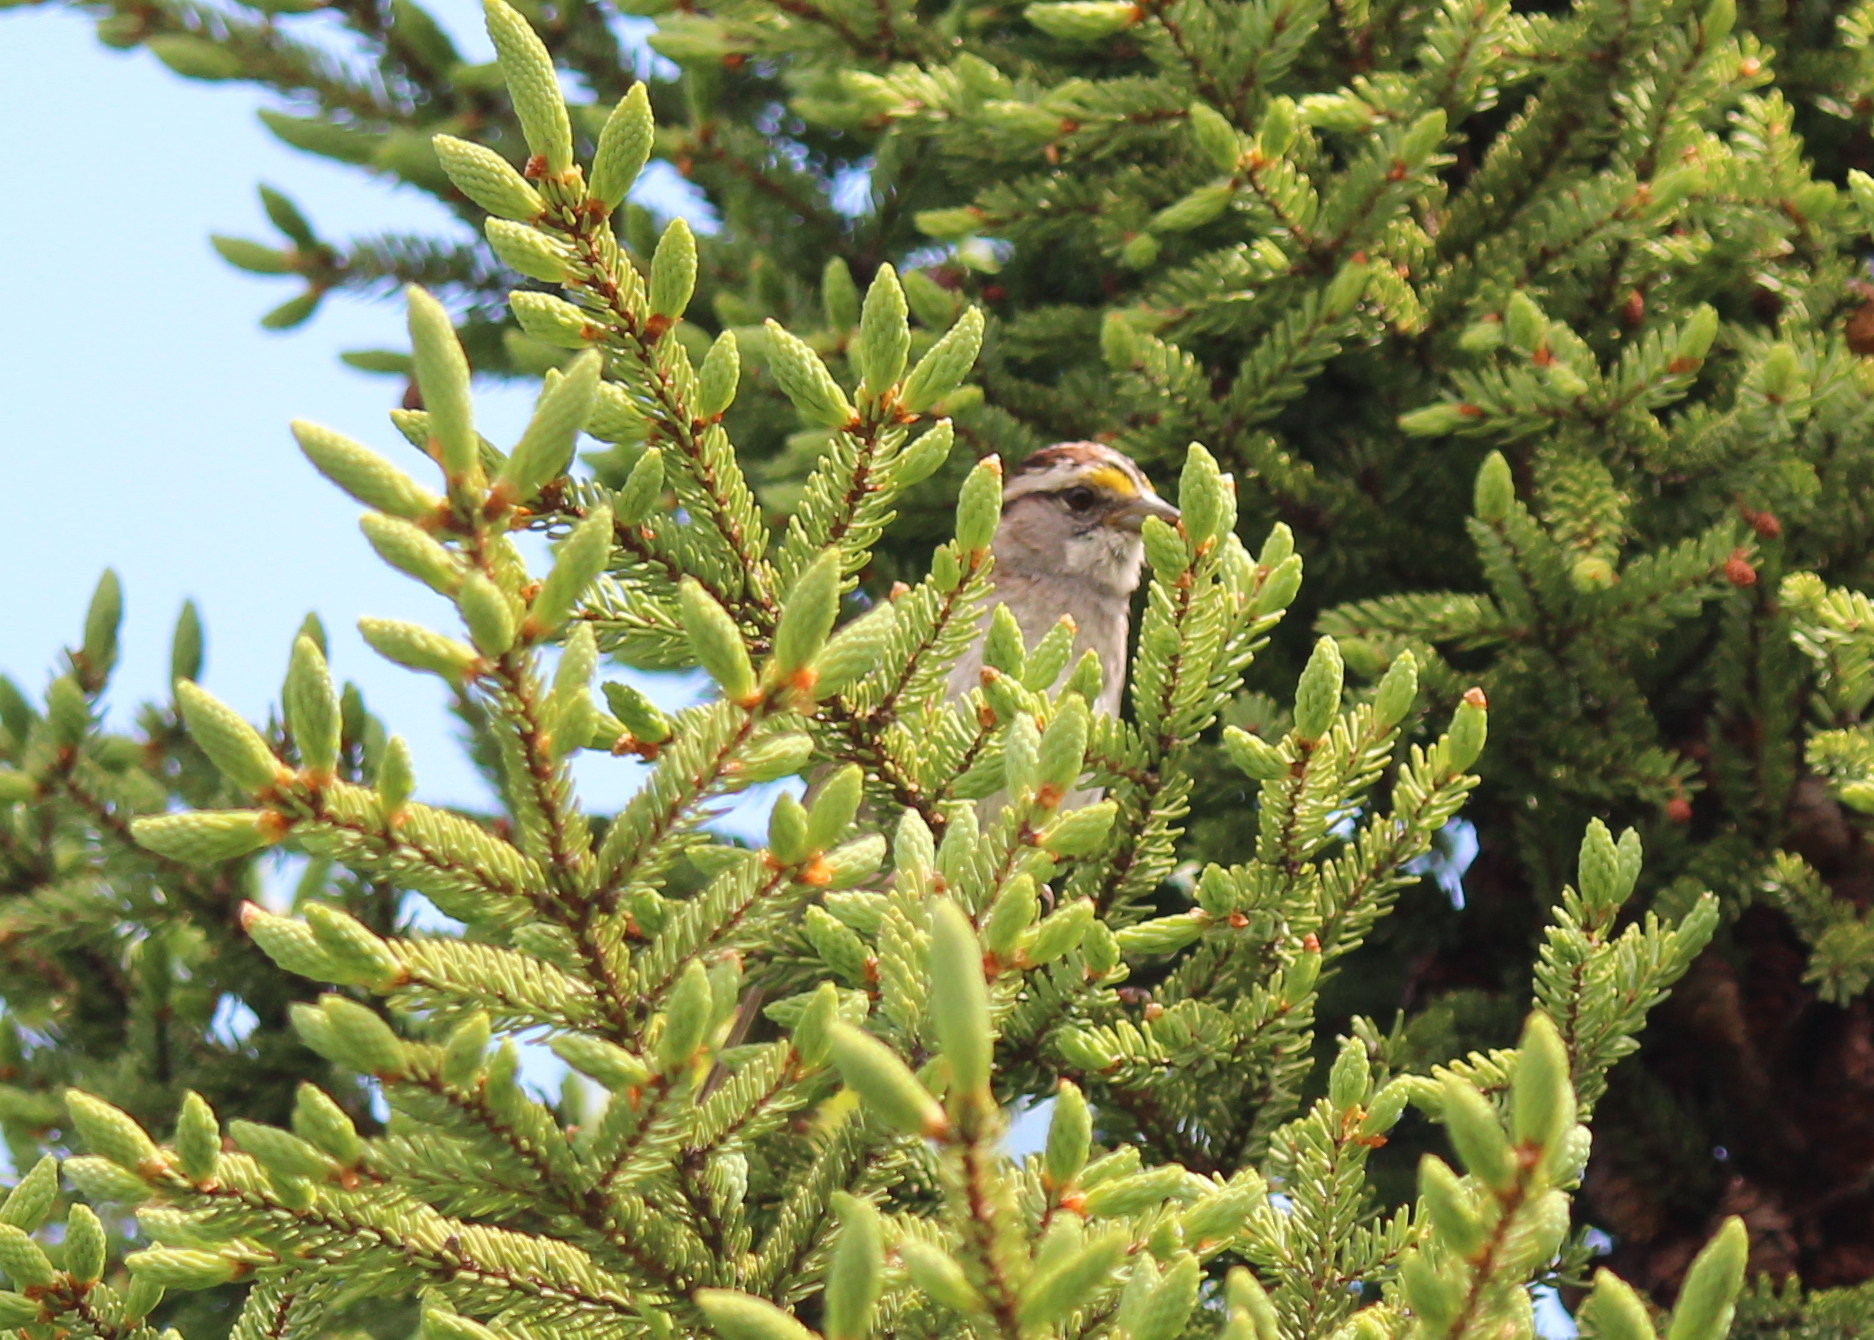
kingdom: Animalia
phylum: Chordata
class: Aves
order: Passeriformes
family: Passerellidae
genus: Zonotrichia
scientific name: Zonotrichia albicollis
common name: White-throated sparrow
